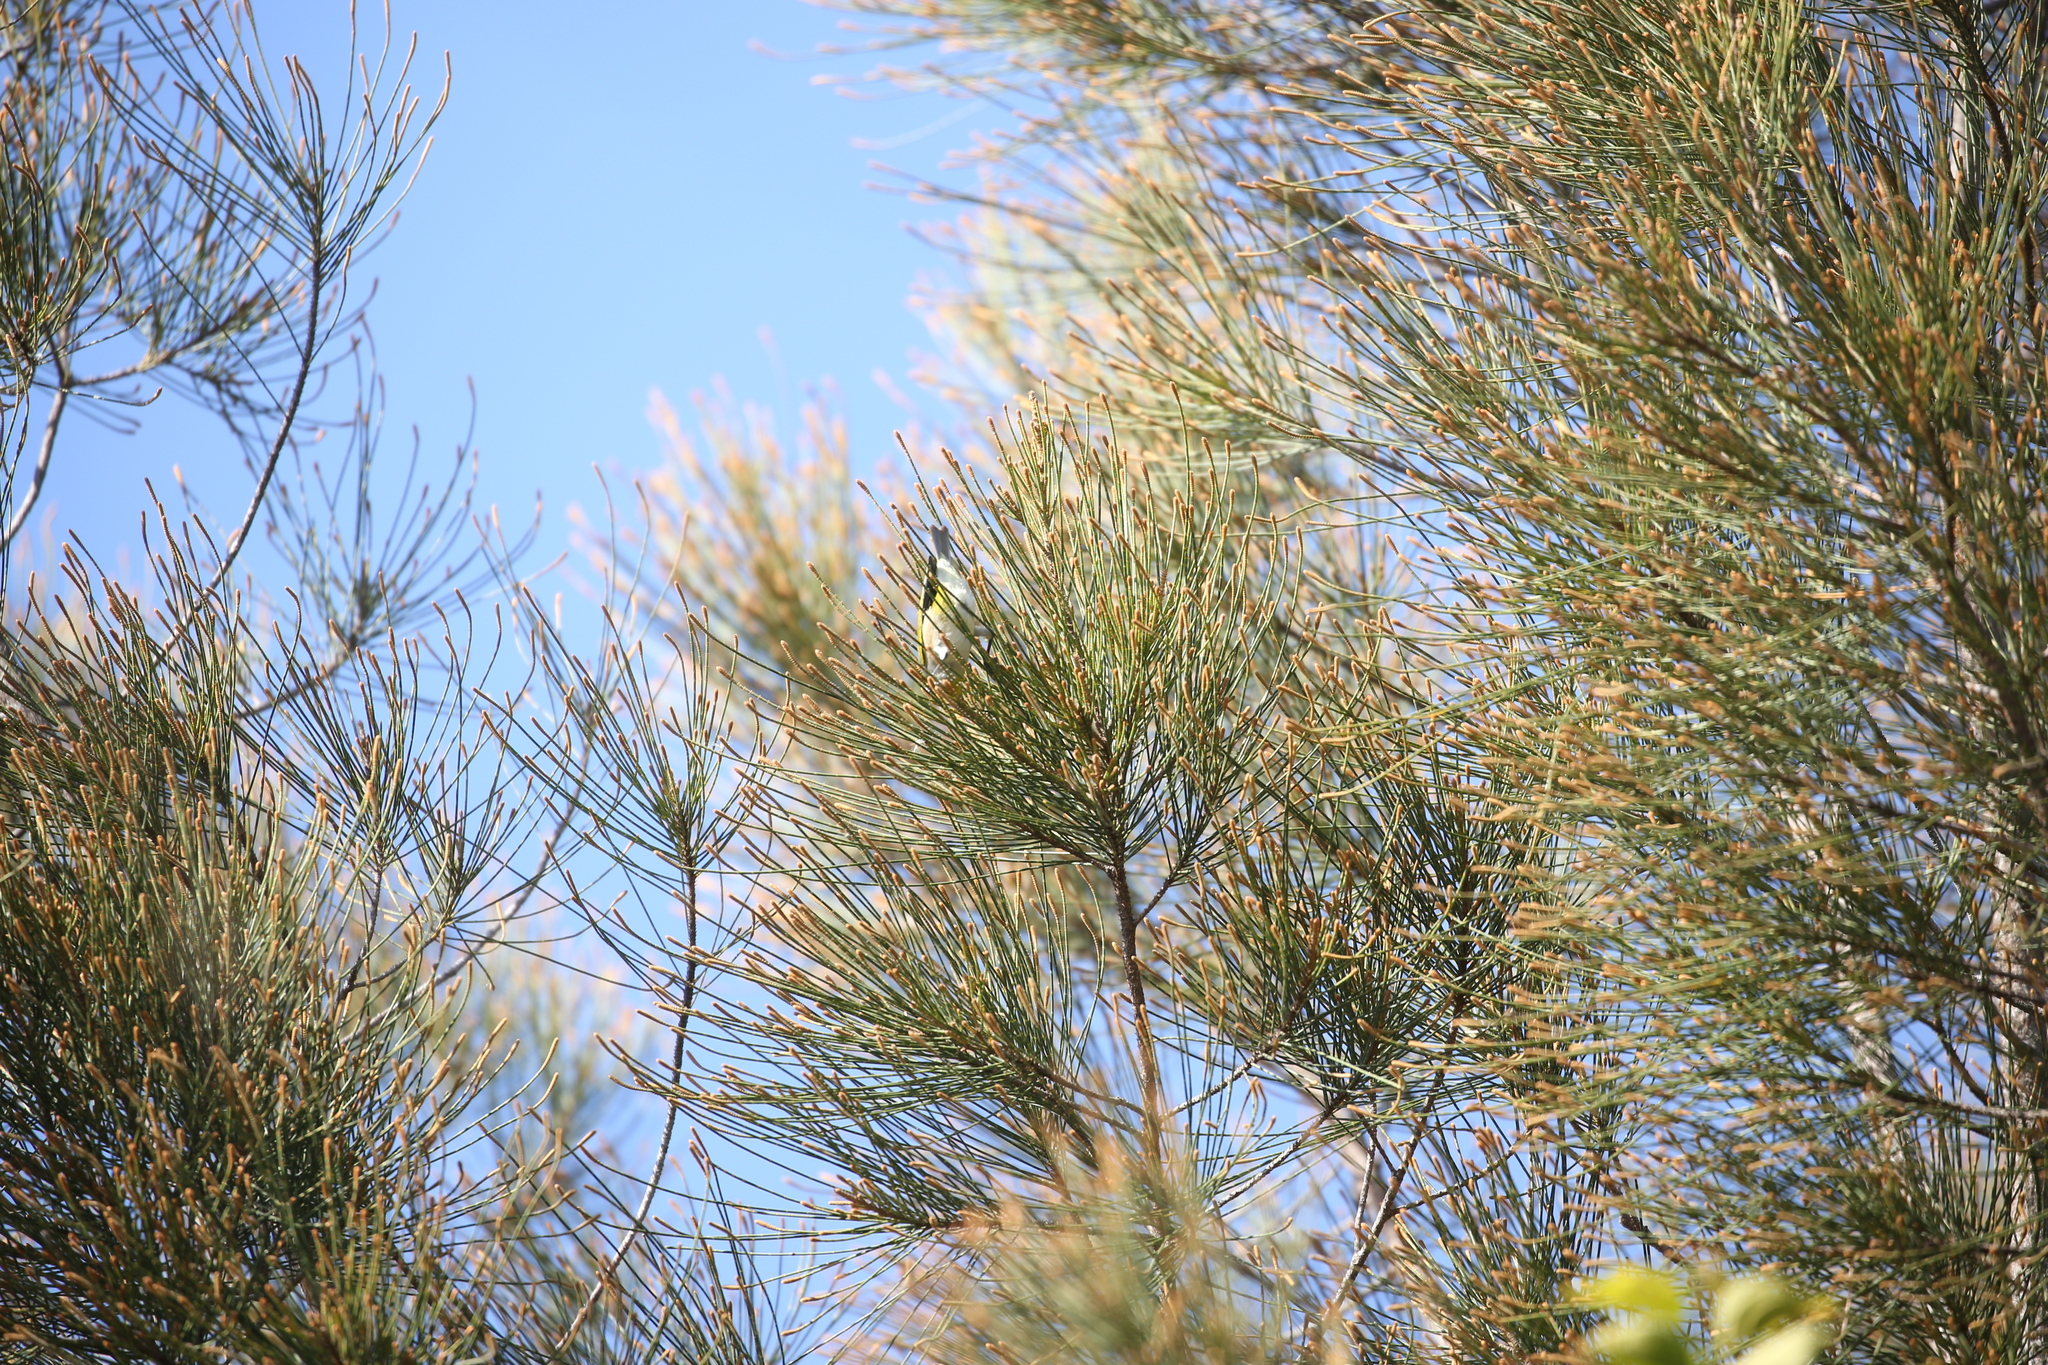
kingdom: Animalia
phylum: Chordata
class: Aves
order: Passeriformes
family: Zosteropidae
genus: Zosterops
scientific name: Zosterops lateralis
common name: Silvereye
